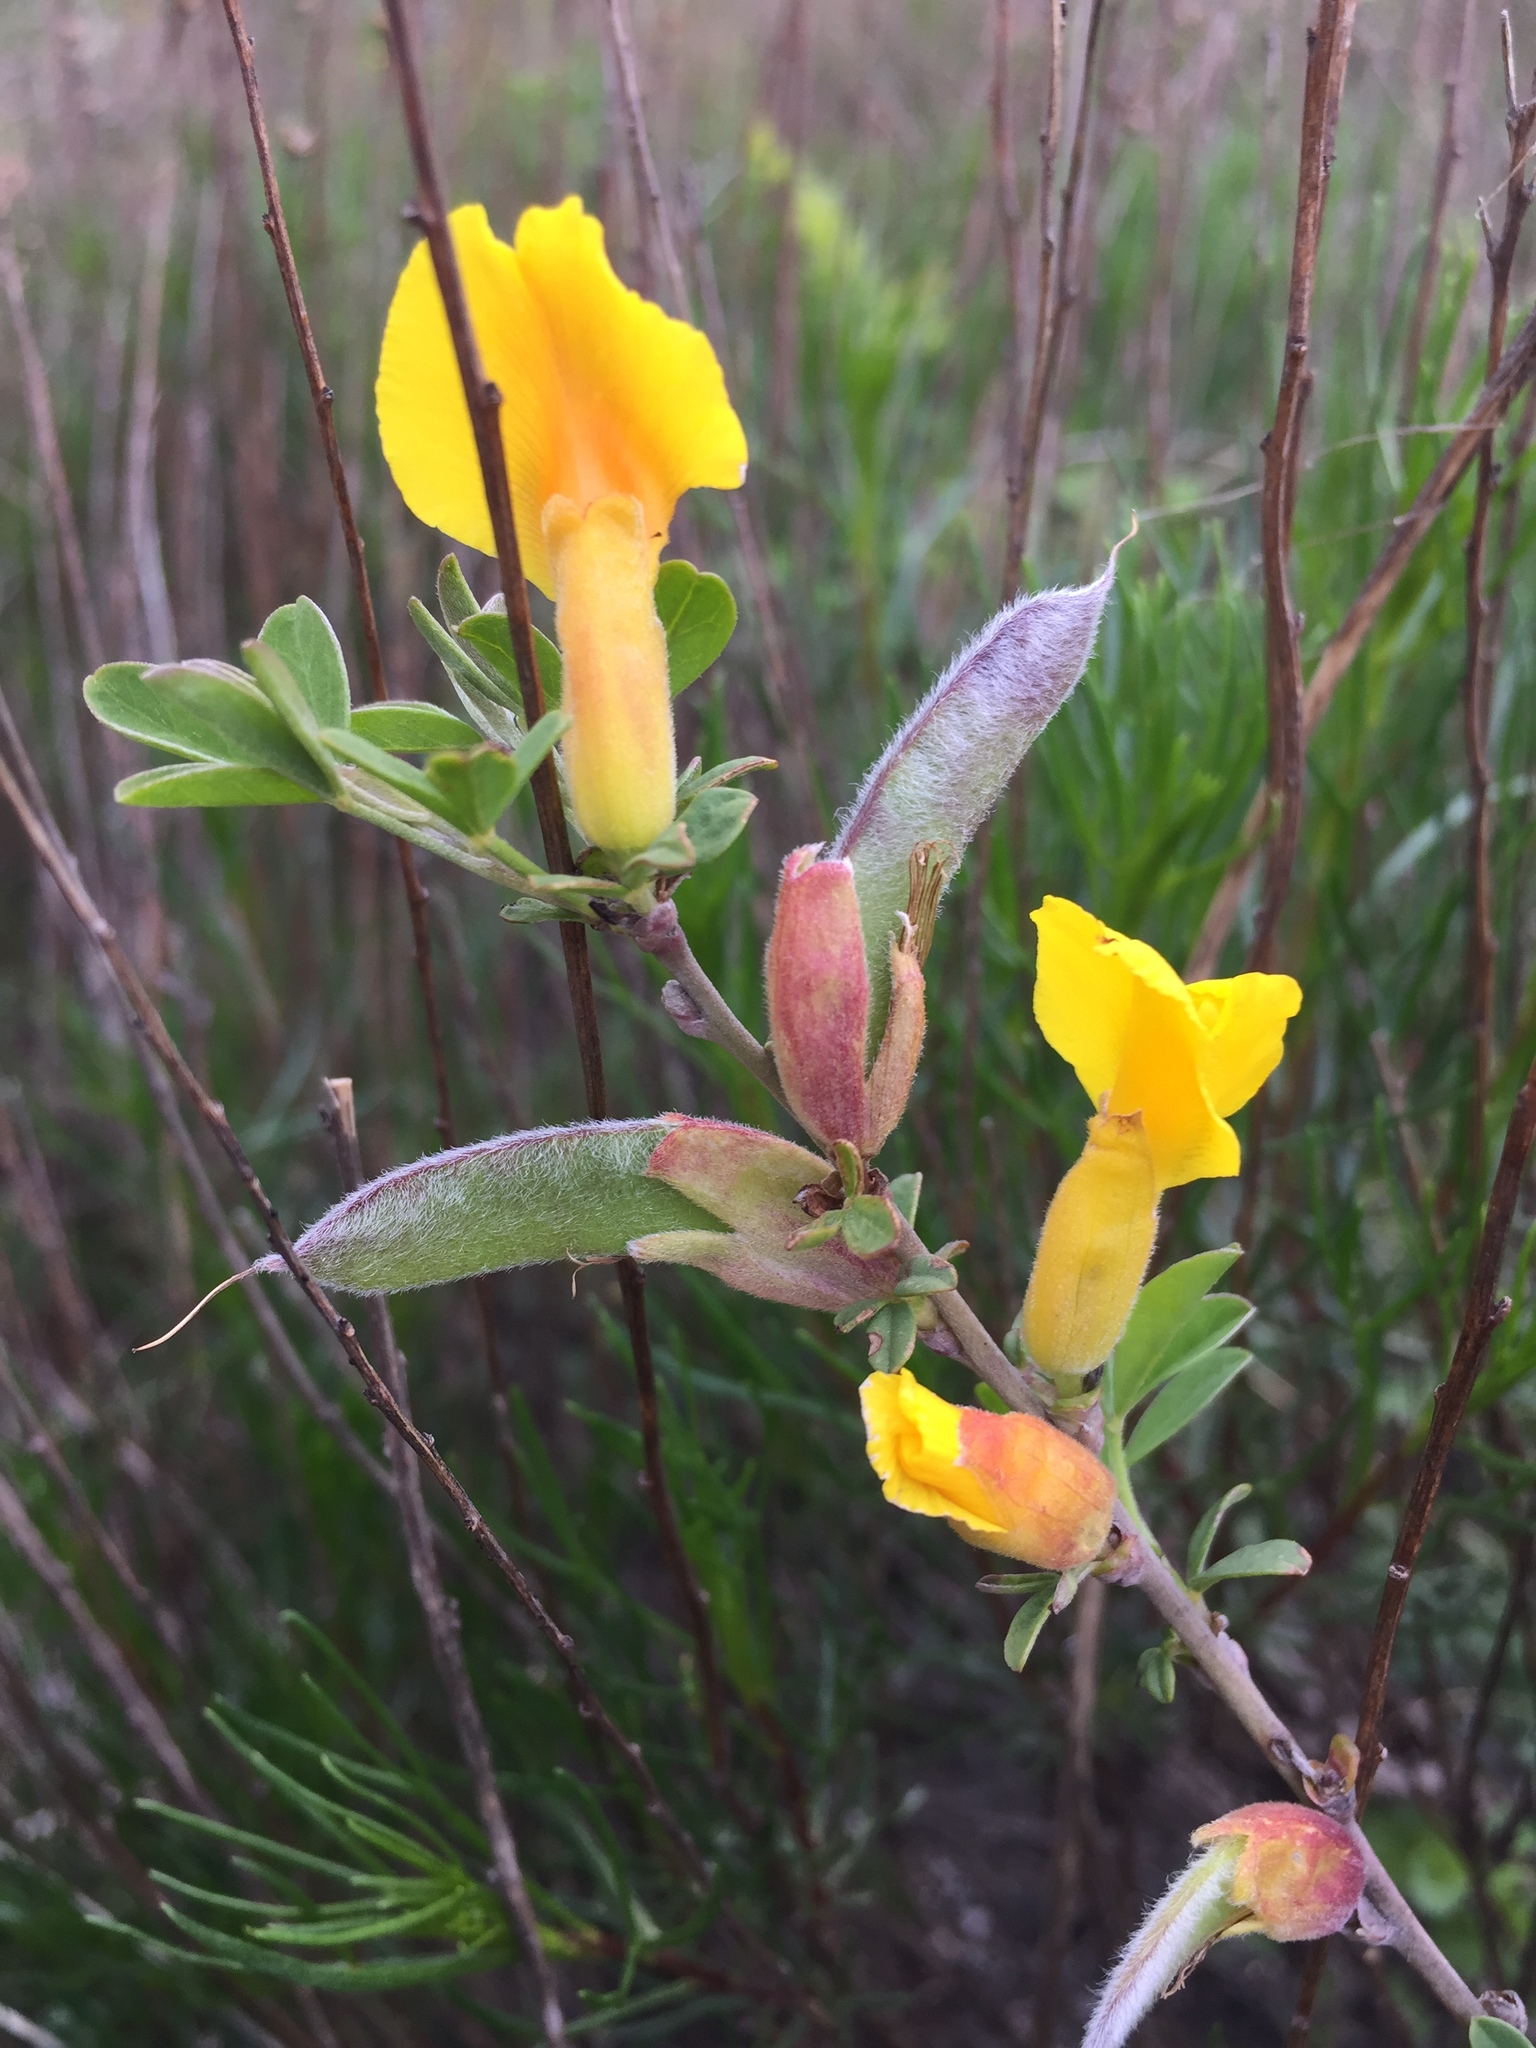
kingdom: Plantae
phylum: Tracheophyta
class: Magnoliopsida
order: Fabales
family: Fabaceae
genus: Chamaecytisus
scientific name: Chamaecytisus ruthenicus
